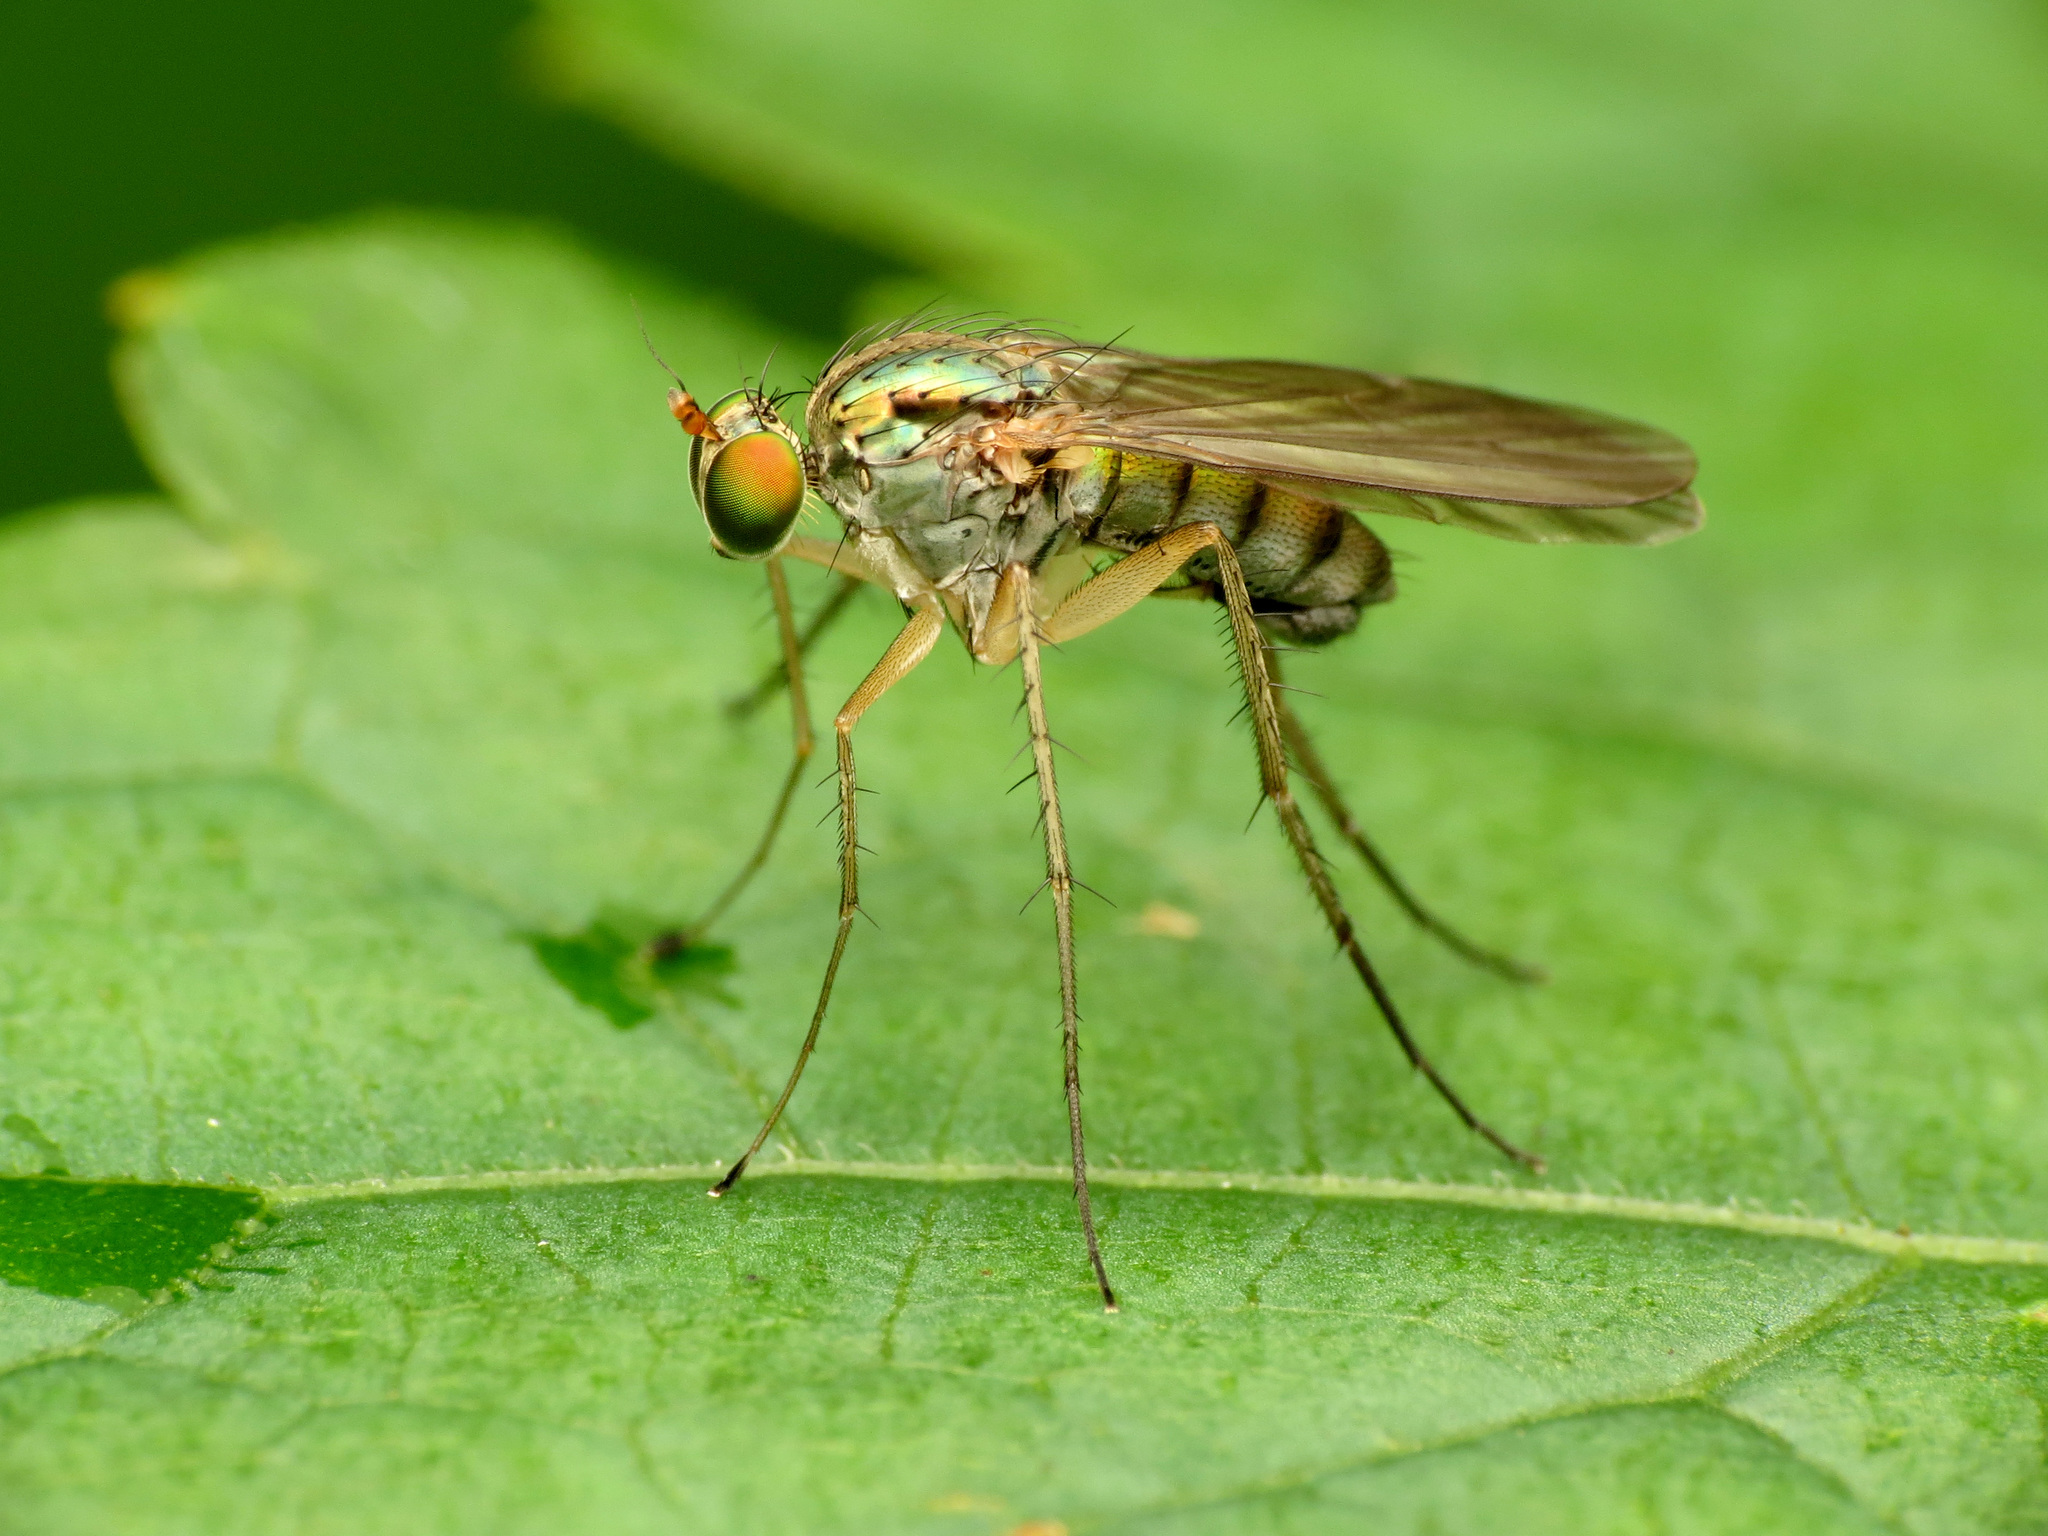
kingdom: Animalia
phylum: Arthropoda
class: Insecta
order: Diptera
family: Dolichopodidae
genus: Dolichopus
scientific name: Dolichopus longipennis
